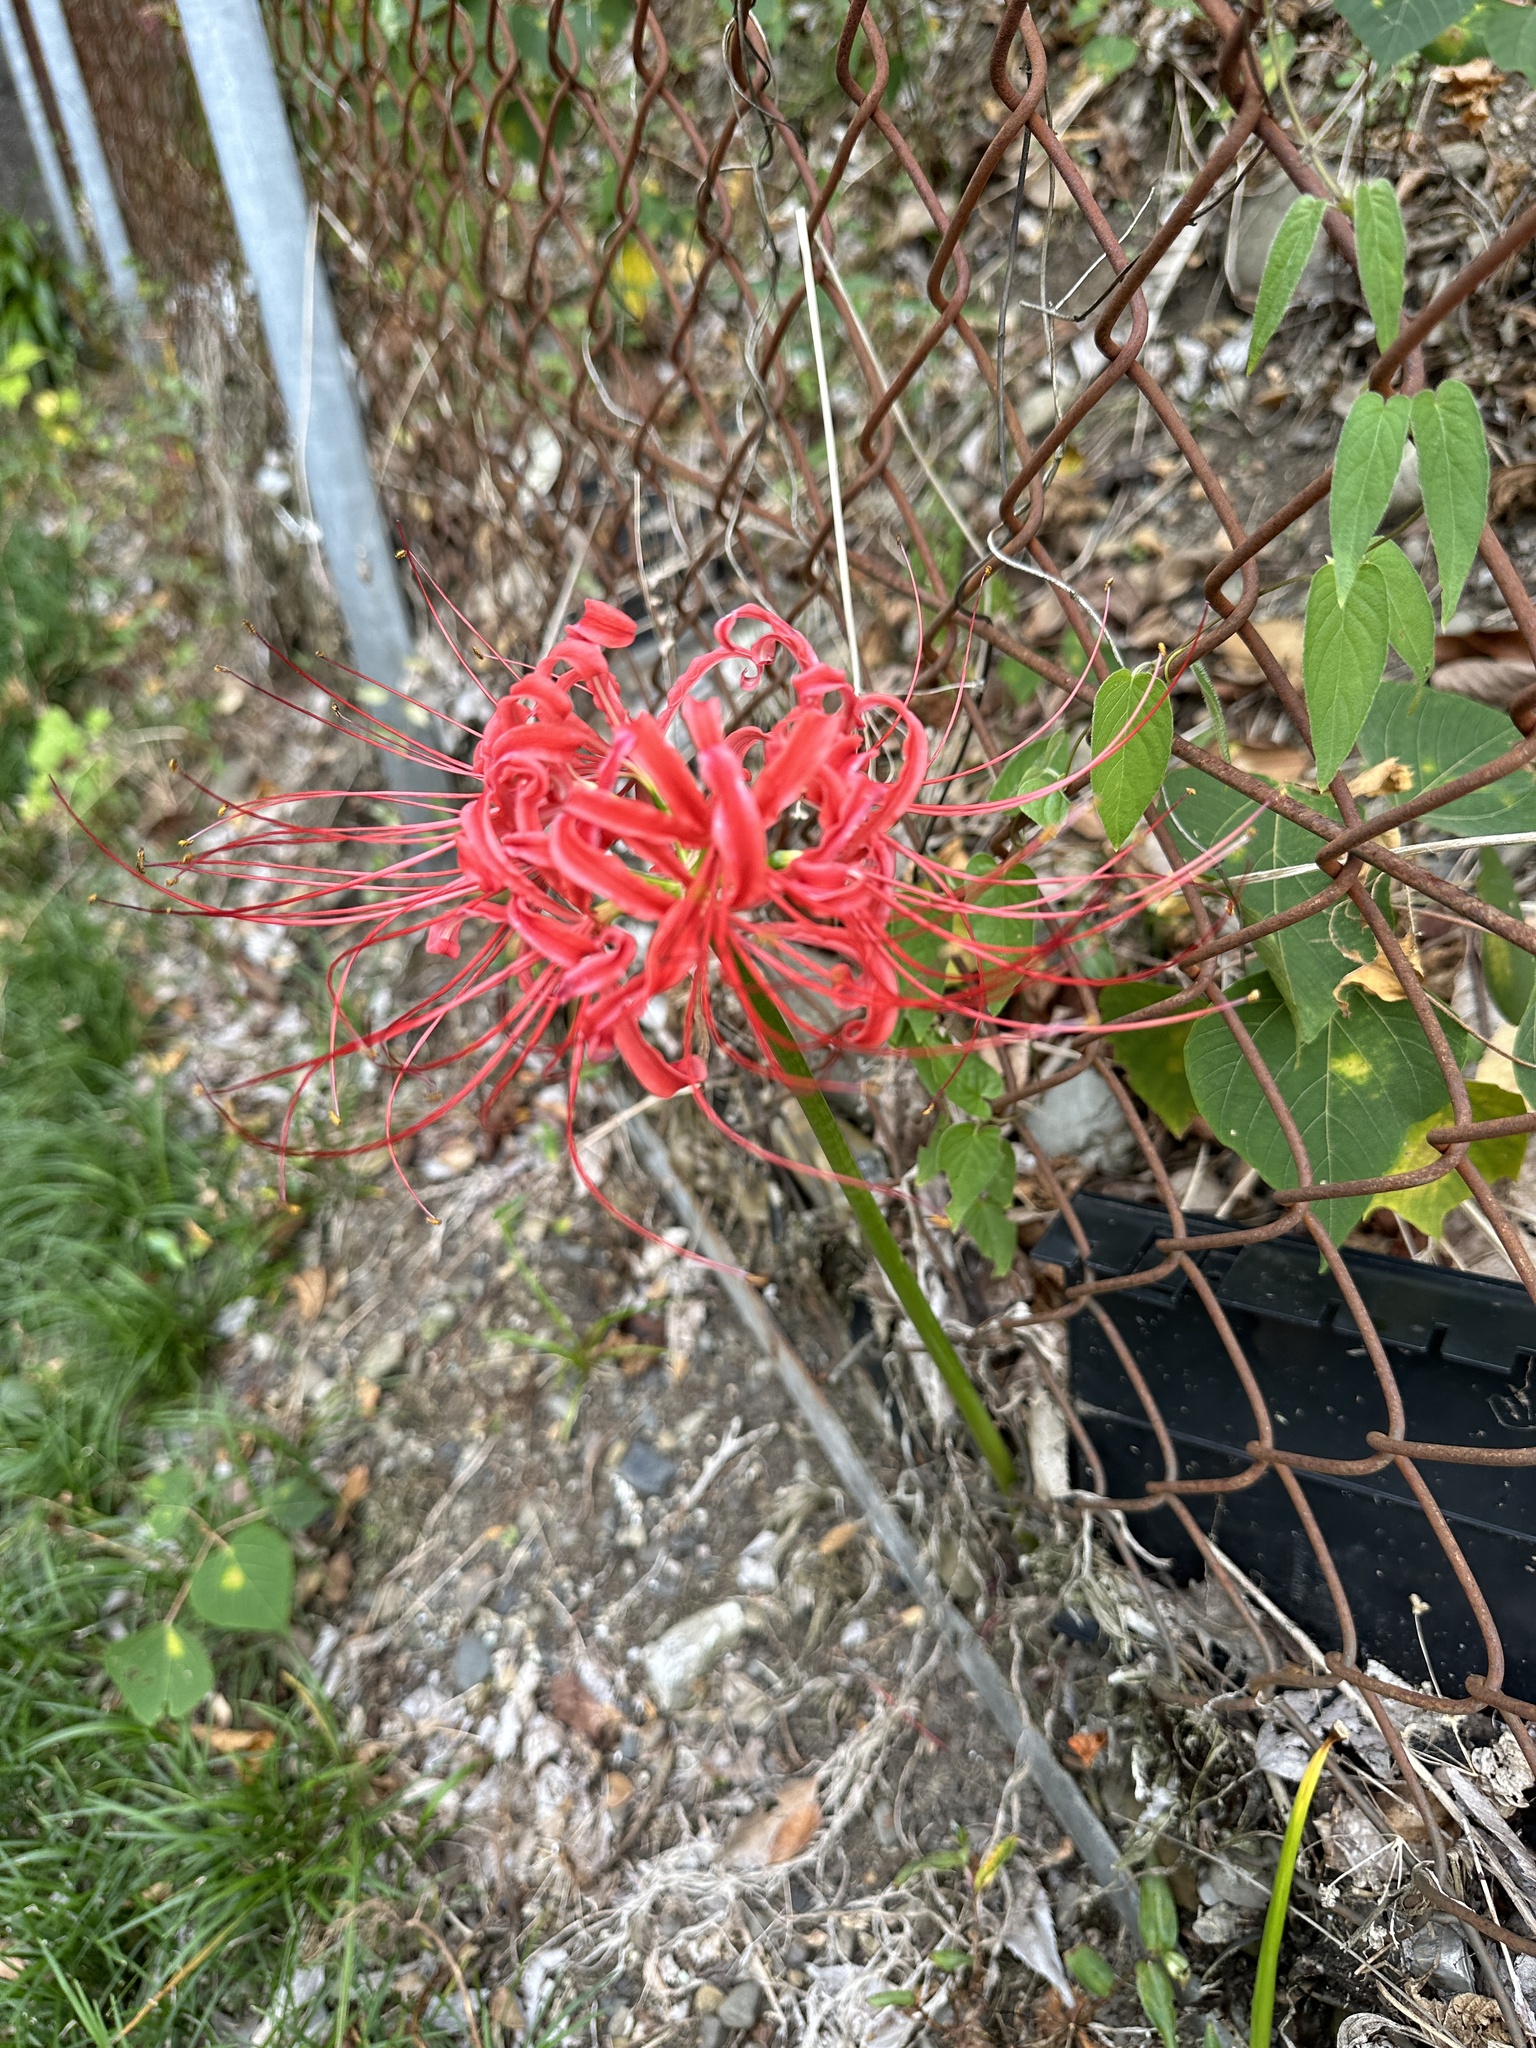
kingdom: Plantae
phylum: Tracheophyta
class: Liliopsida
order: Asparagales
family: Amaryllidaceae
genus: Lycoris
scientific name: Lycoris radiata
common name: Red spider lily
